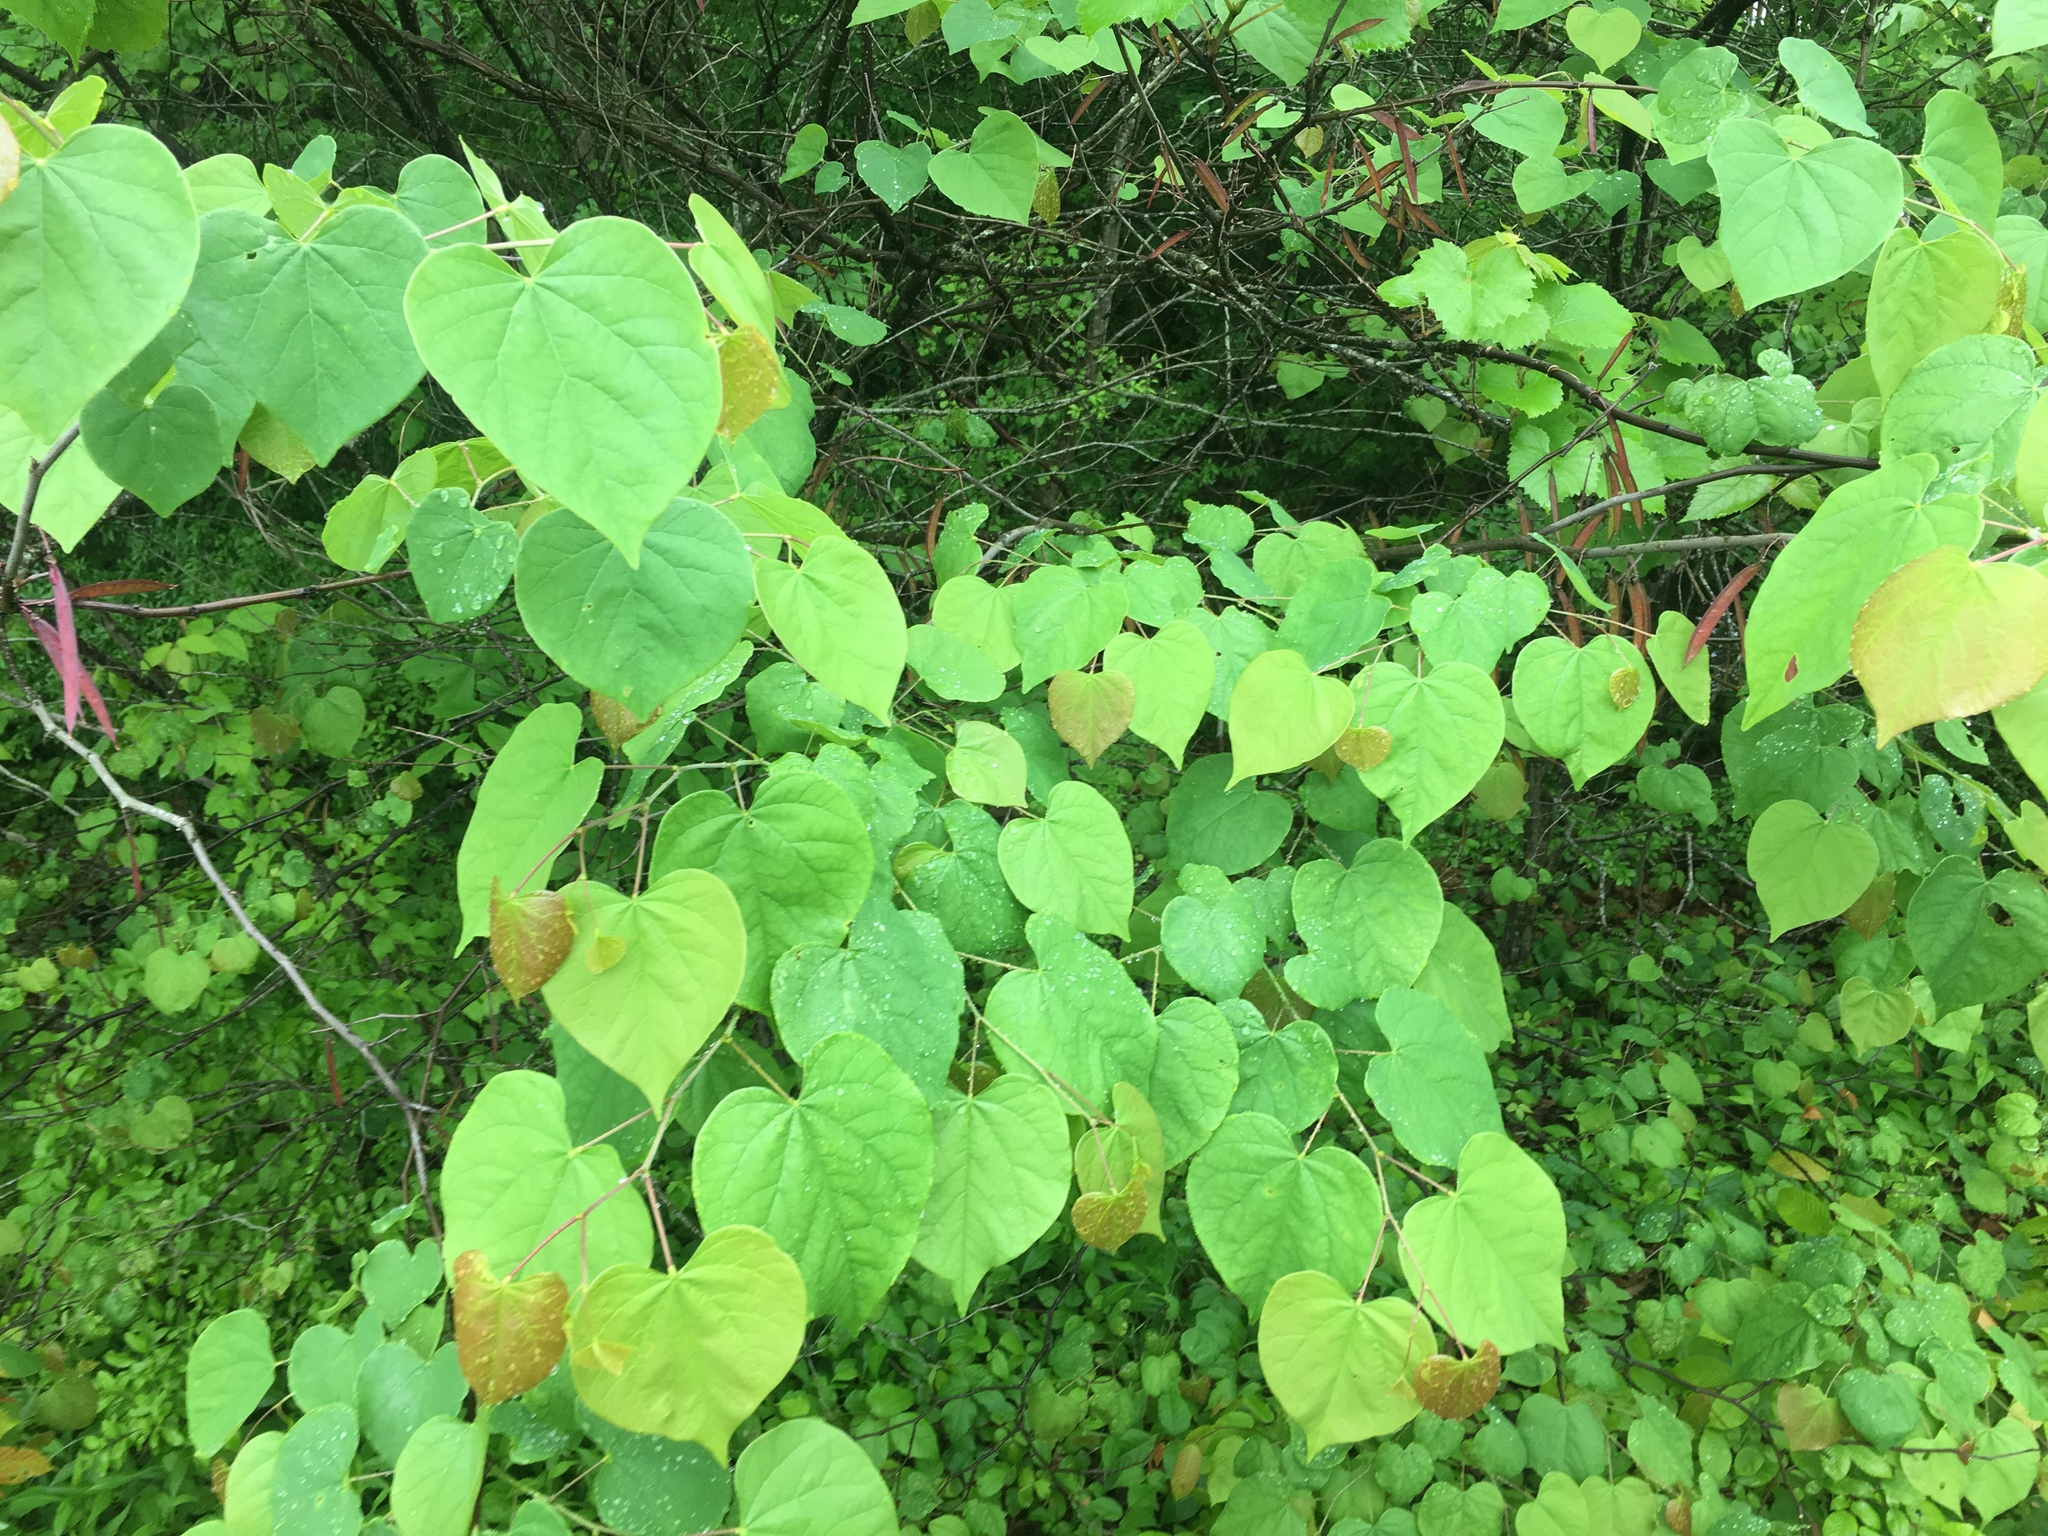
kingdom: Plantae
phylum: Tracheophyta
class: Magnoliopsida
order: Fabales
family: Fabaceae
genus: Cercis
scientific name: Cercis canadensis
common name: Eastern redbud
